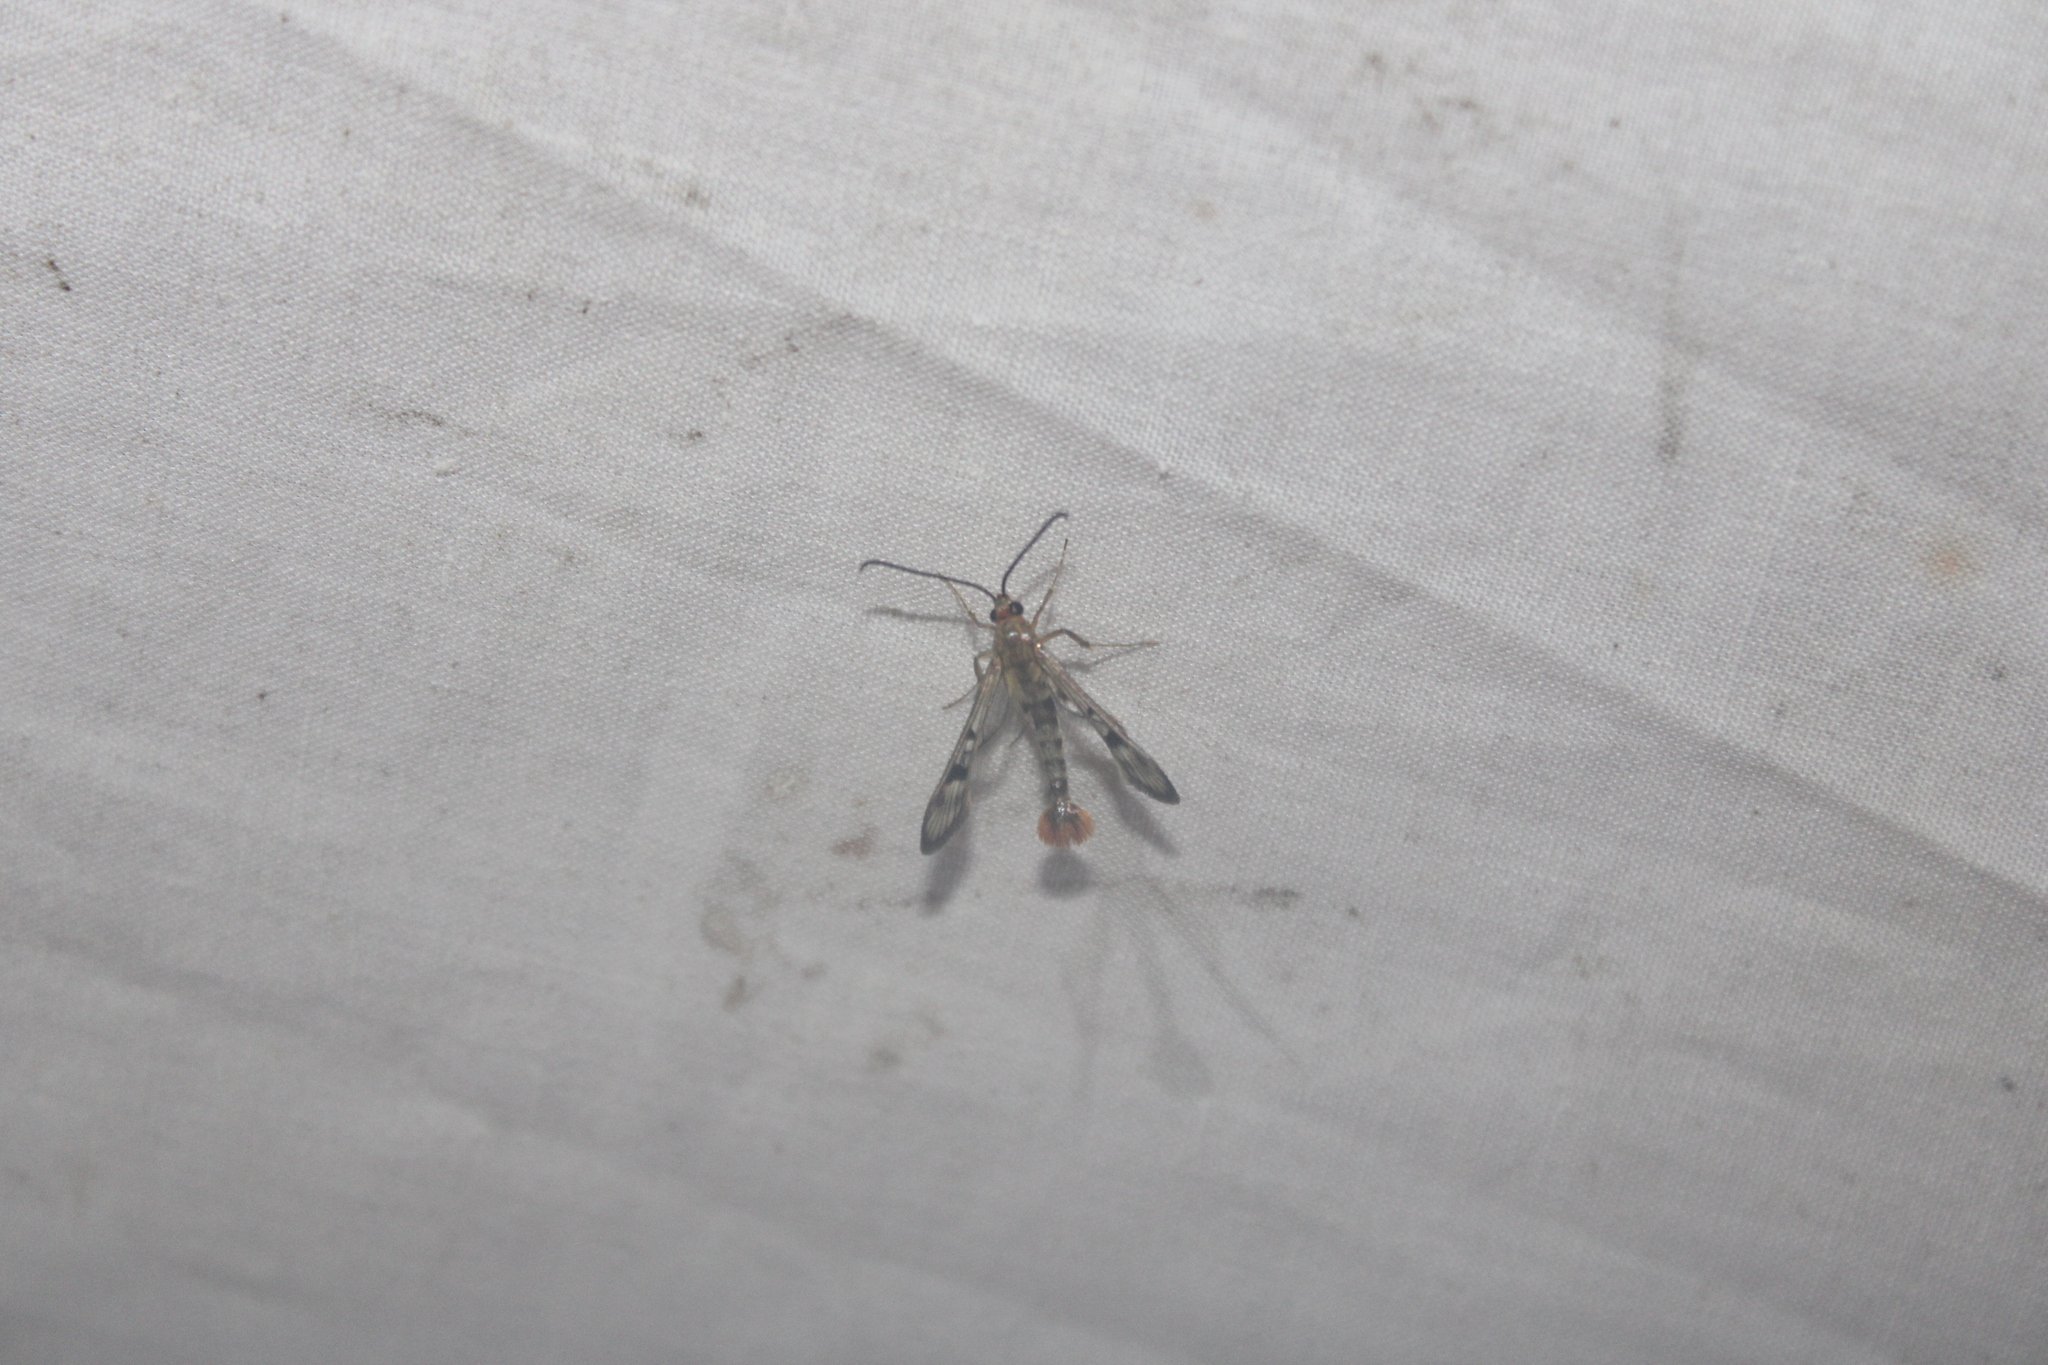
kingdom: Animalia
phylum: Arthropoda
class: Insecta
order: Lepidoptera
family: Sesiidae
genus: Synanthedon
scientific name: Synanthedon acerni
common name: Maple callus borer moth
